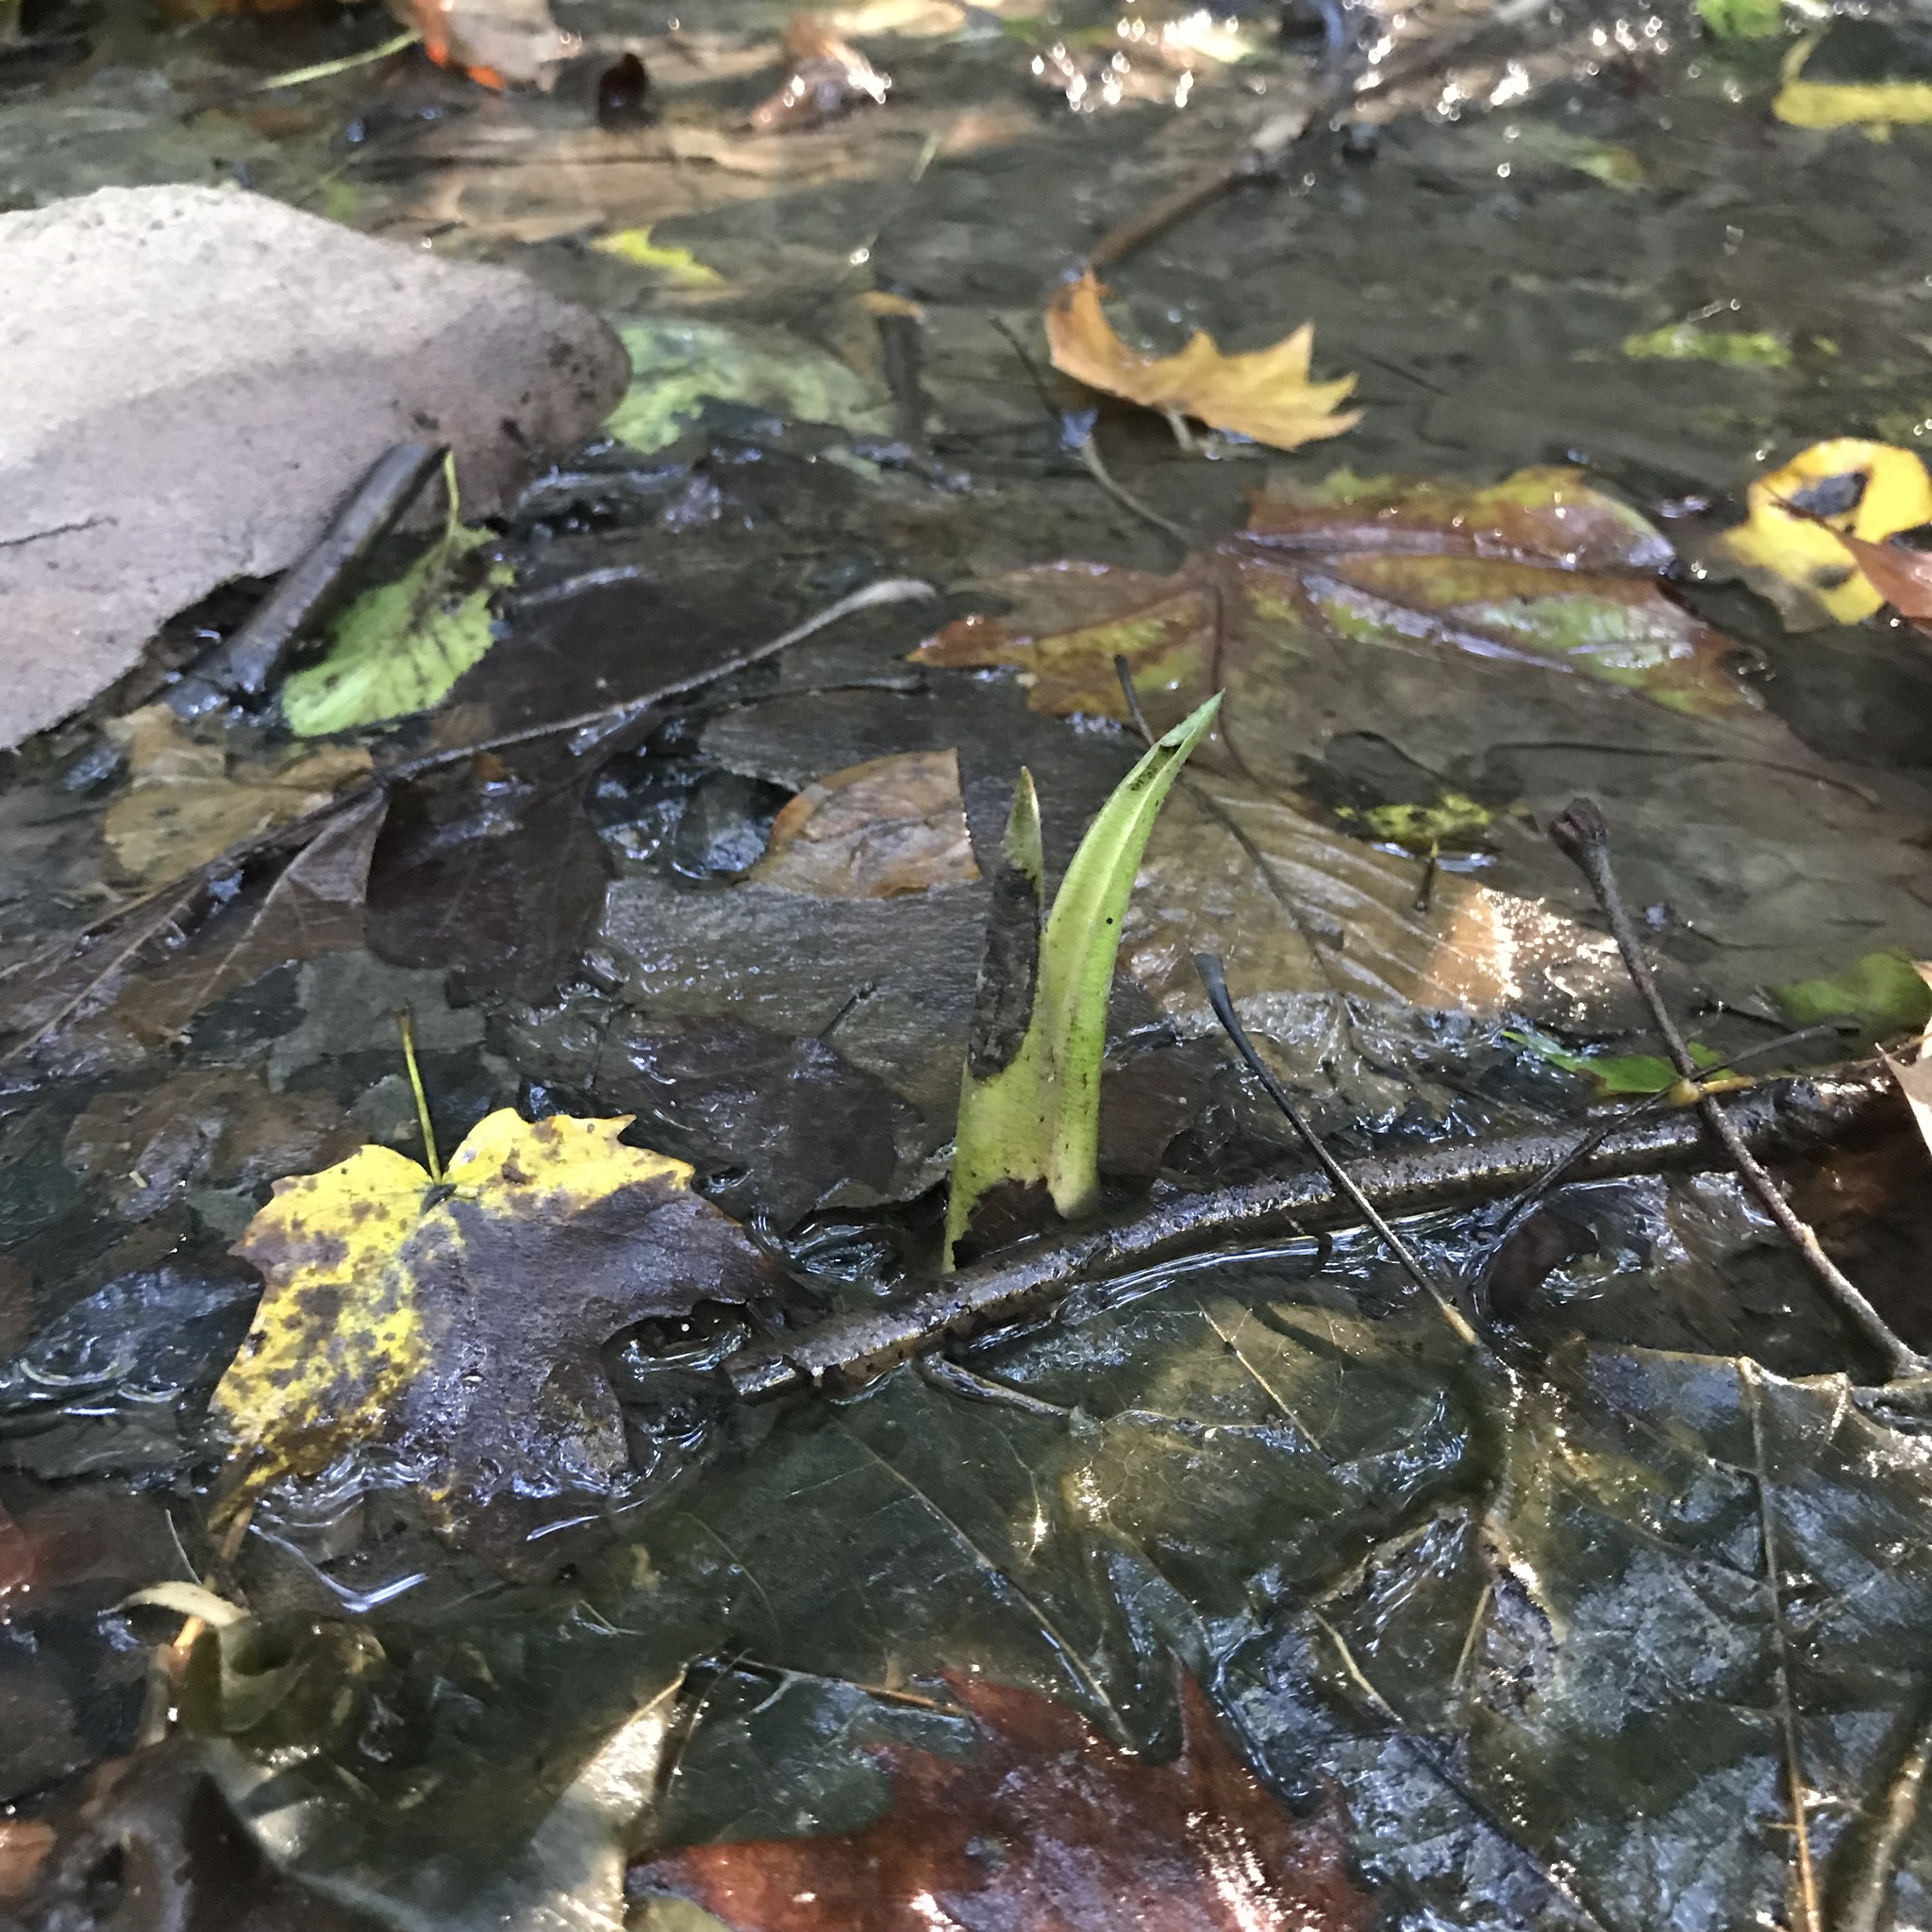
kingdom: Plantae
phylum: Tracheophyta
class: Liliopsida
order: Alismatales
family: Araceae
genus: Symplocarpus
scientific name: Symplocarpus foetidus
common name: Eastern skunk cabbage
